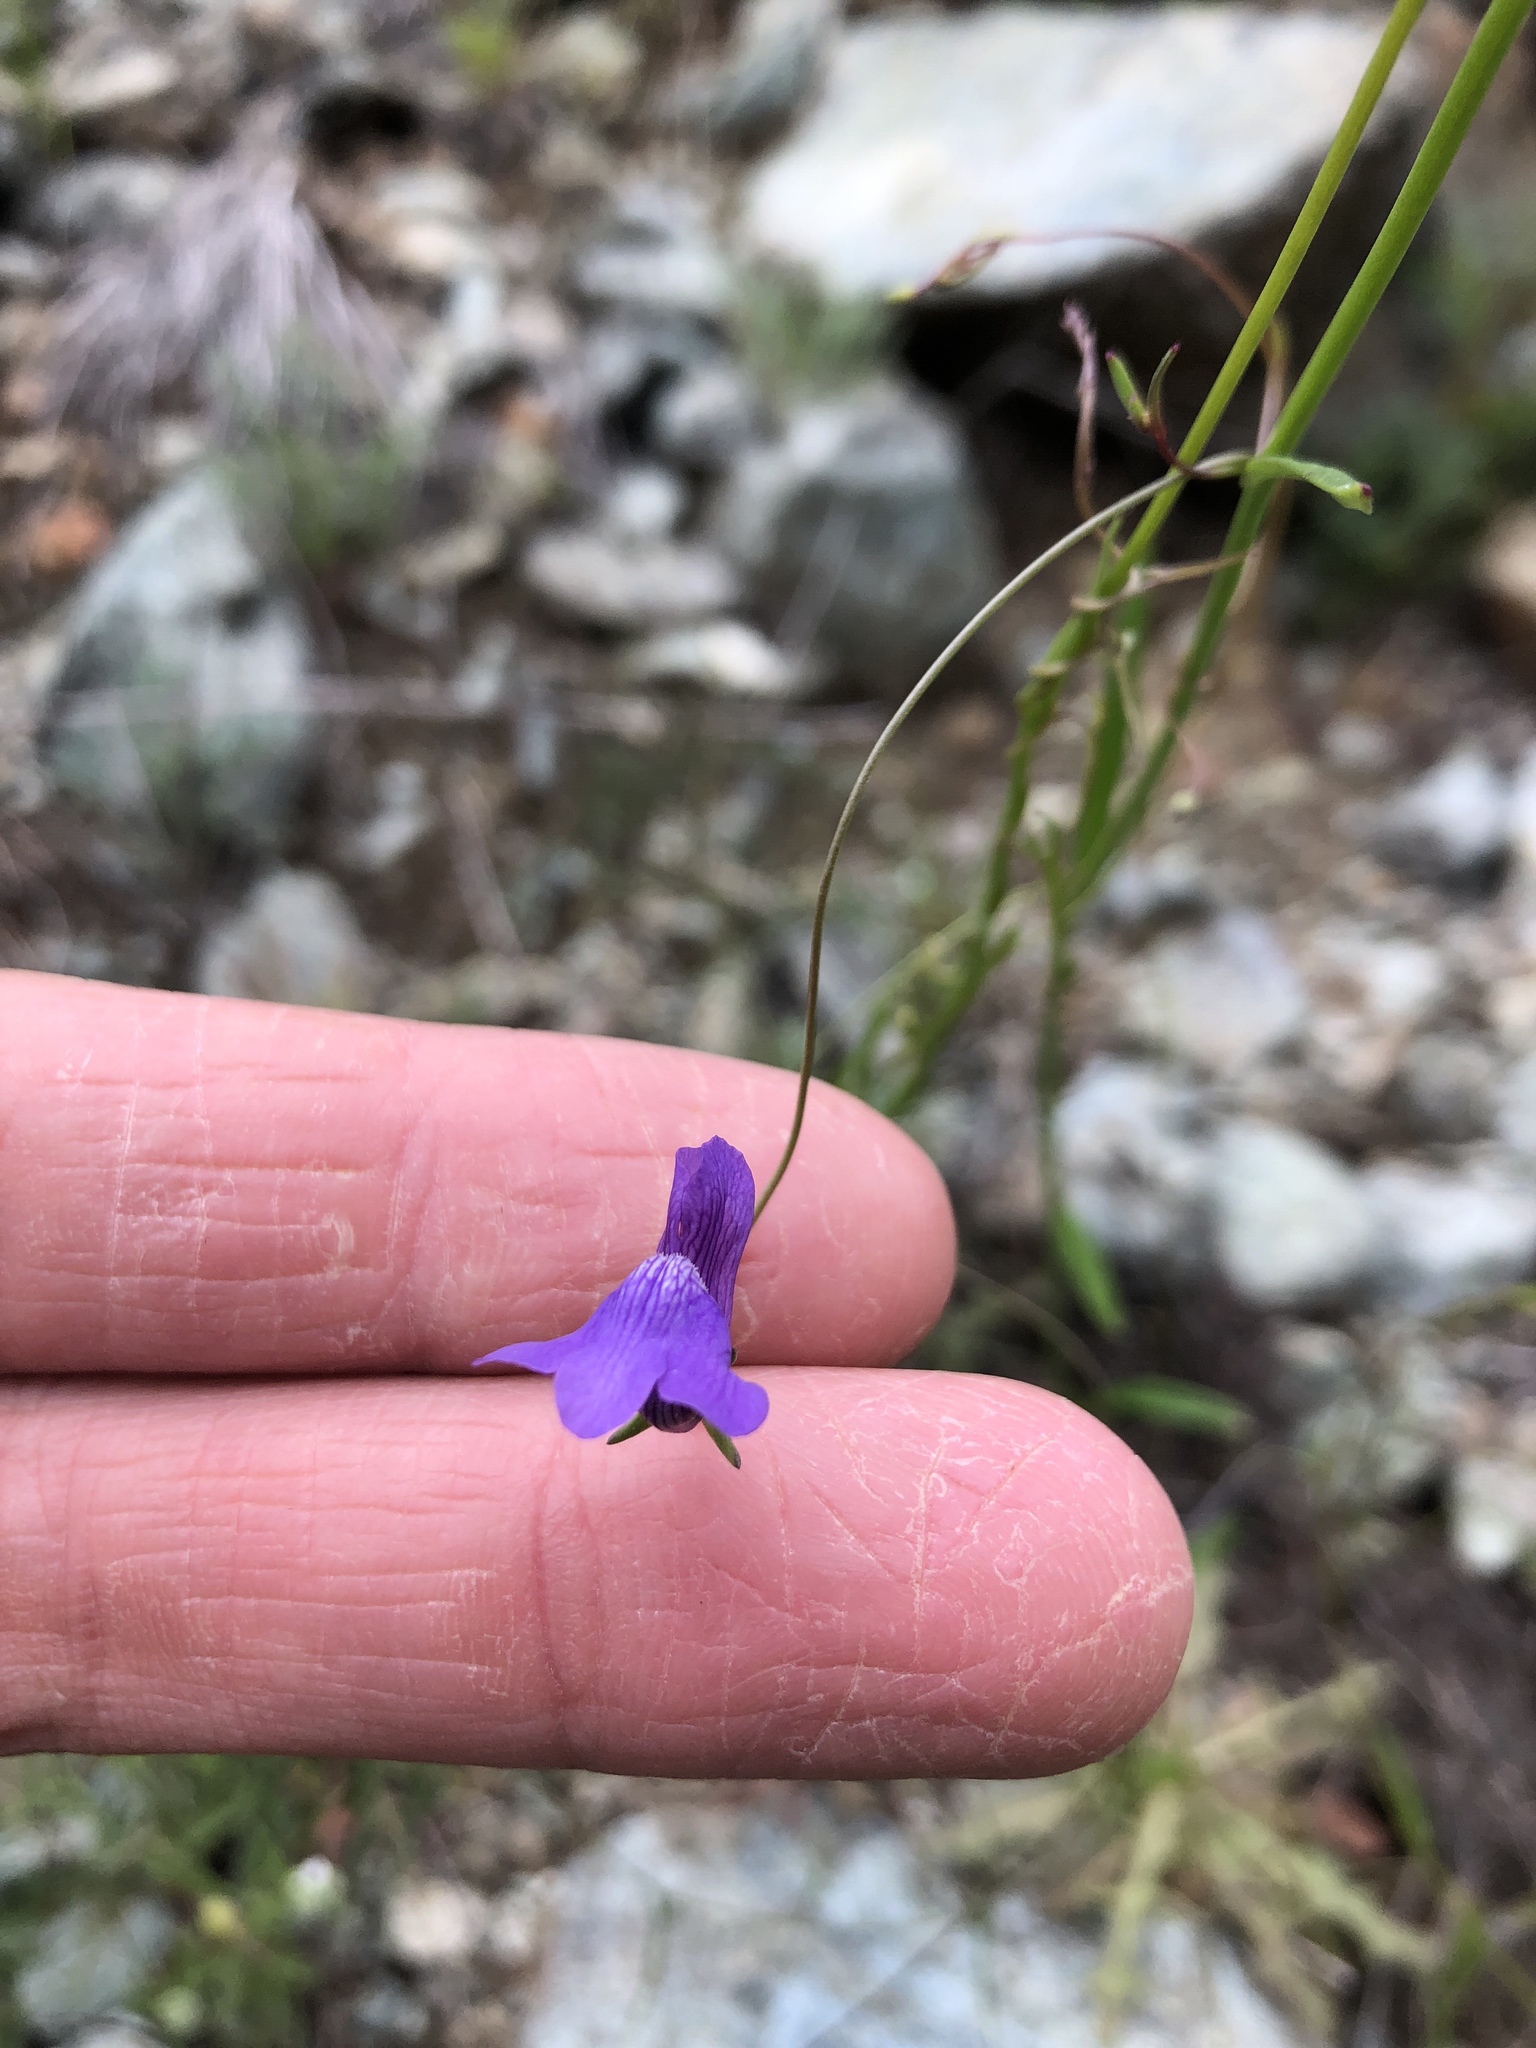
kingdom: Plantae
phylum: Tracheophyta
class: Magnoliopsida
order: Lamiales
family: Plantaginaceae
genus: Neogaerrhinum
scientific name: Neogaerrhinum strictum
